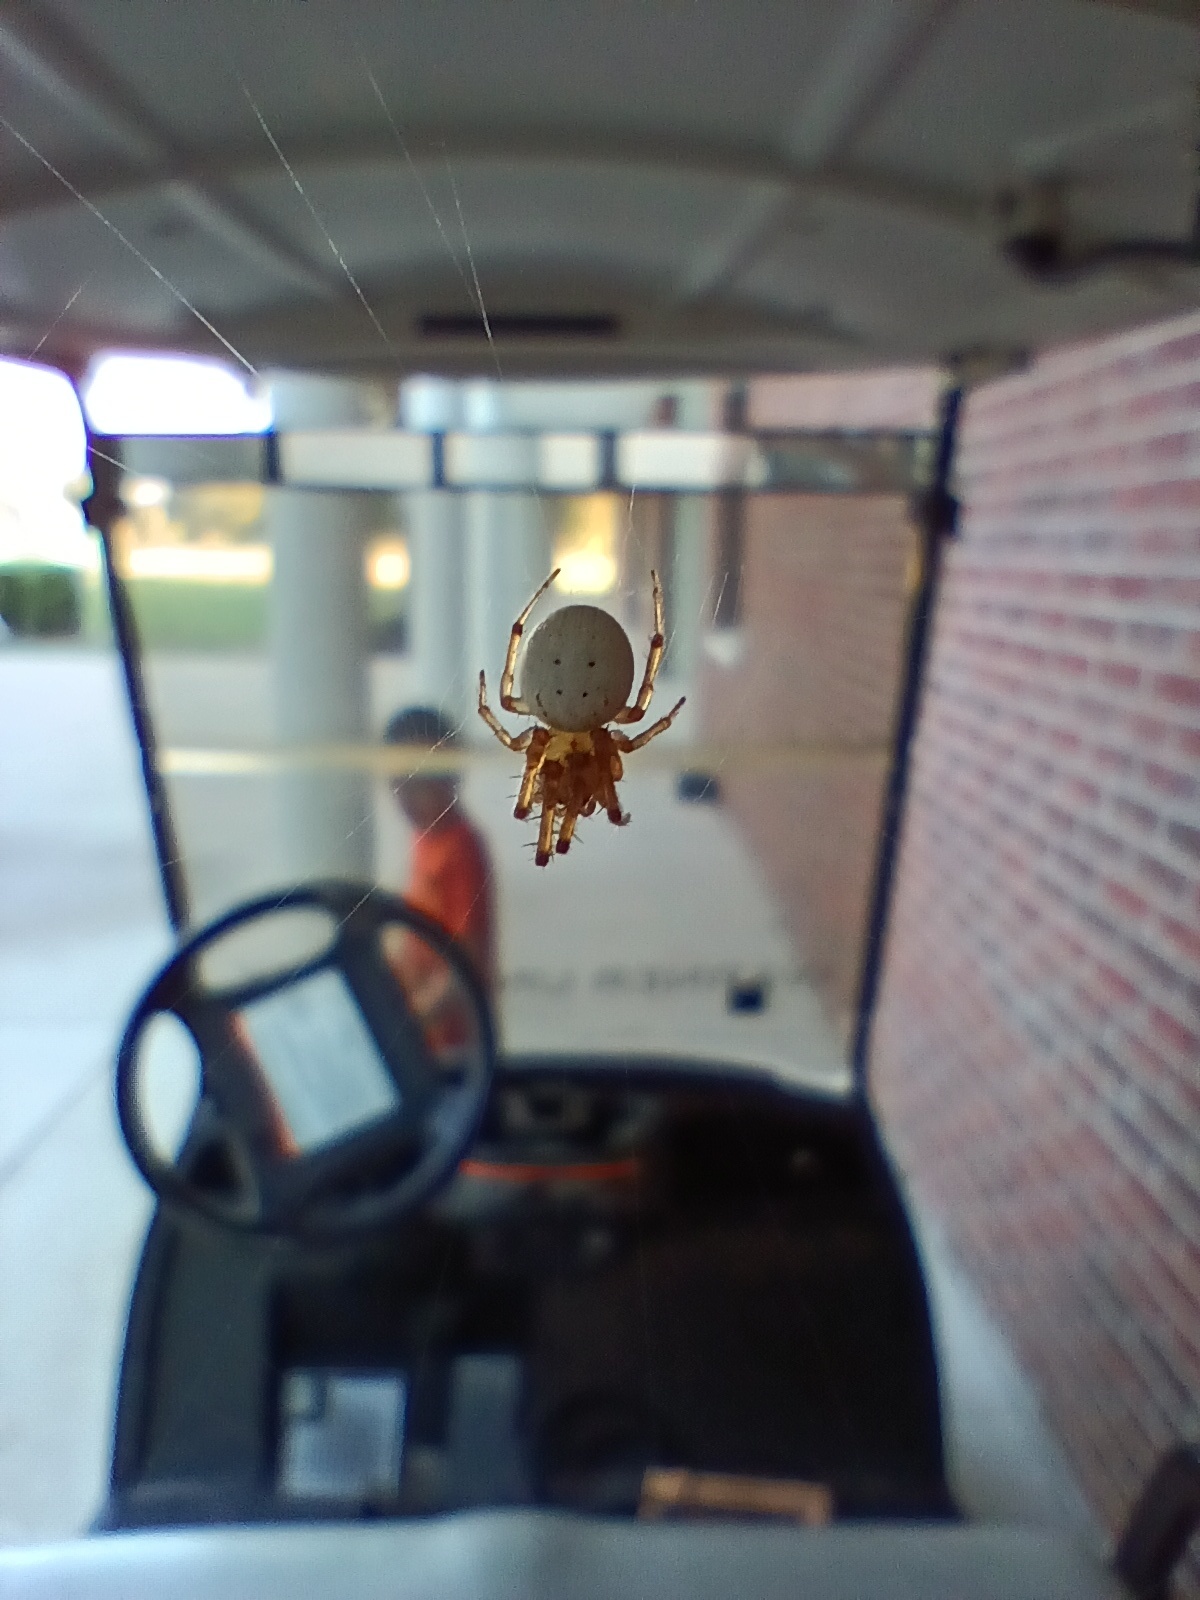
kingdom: Animalia
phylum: Arthropoda
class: Arachnida
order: Araneae
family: Araneidae
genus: Metazygia
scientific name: Metazygia zilloides
